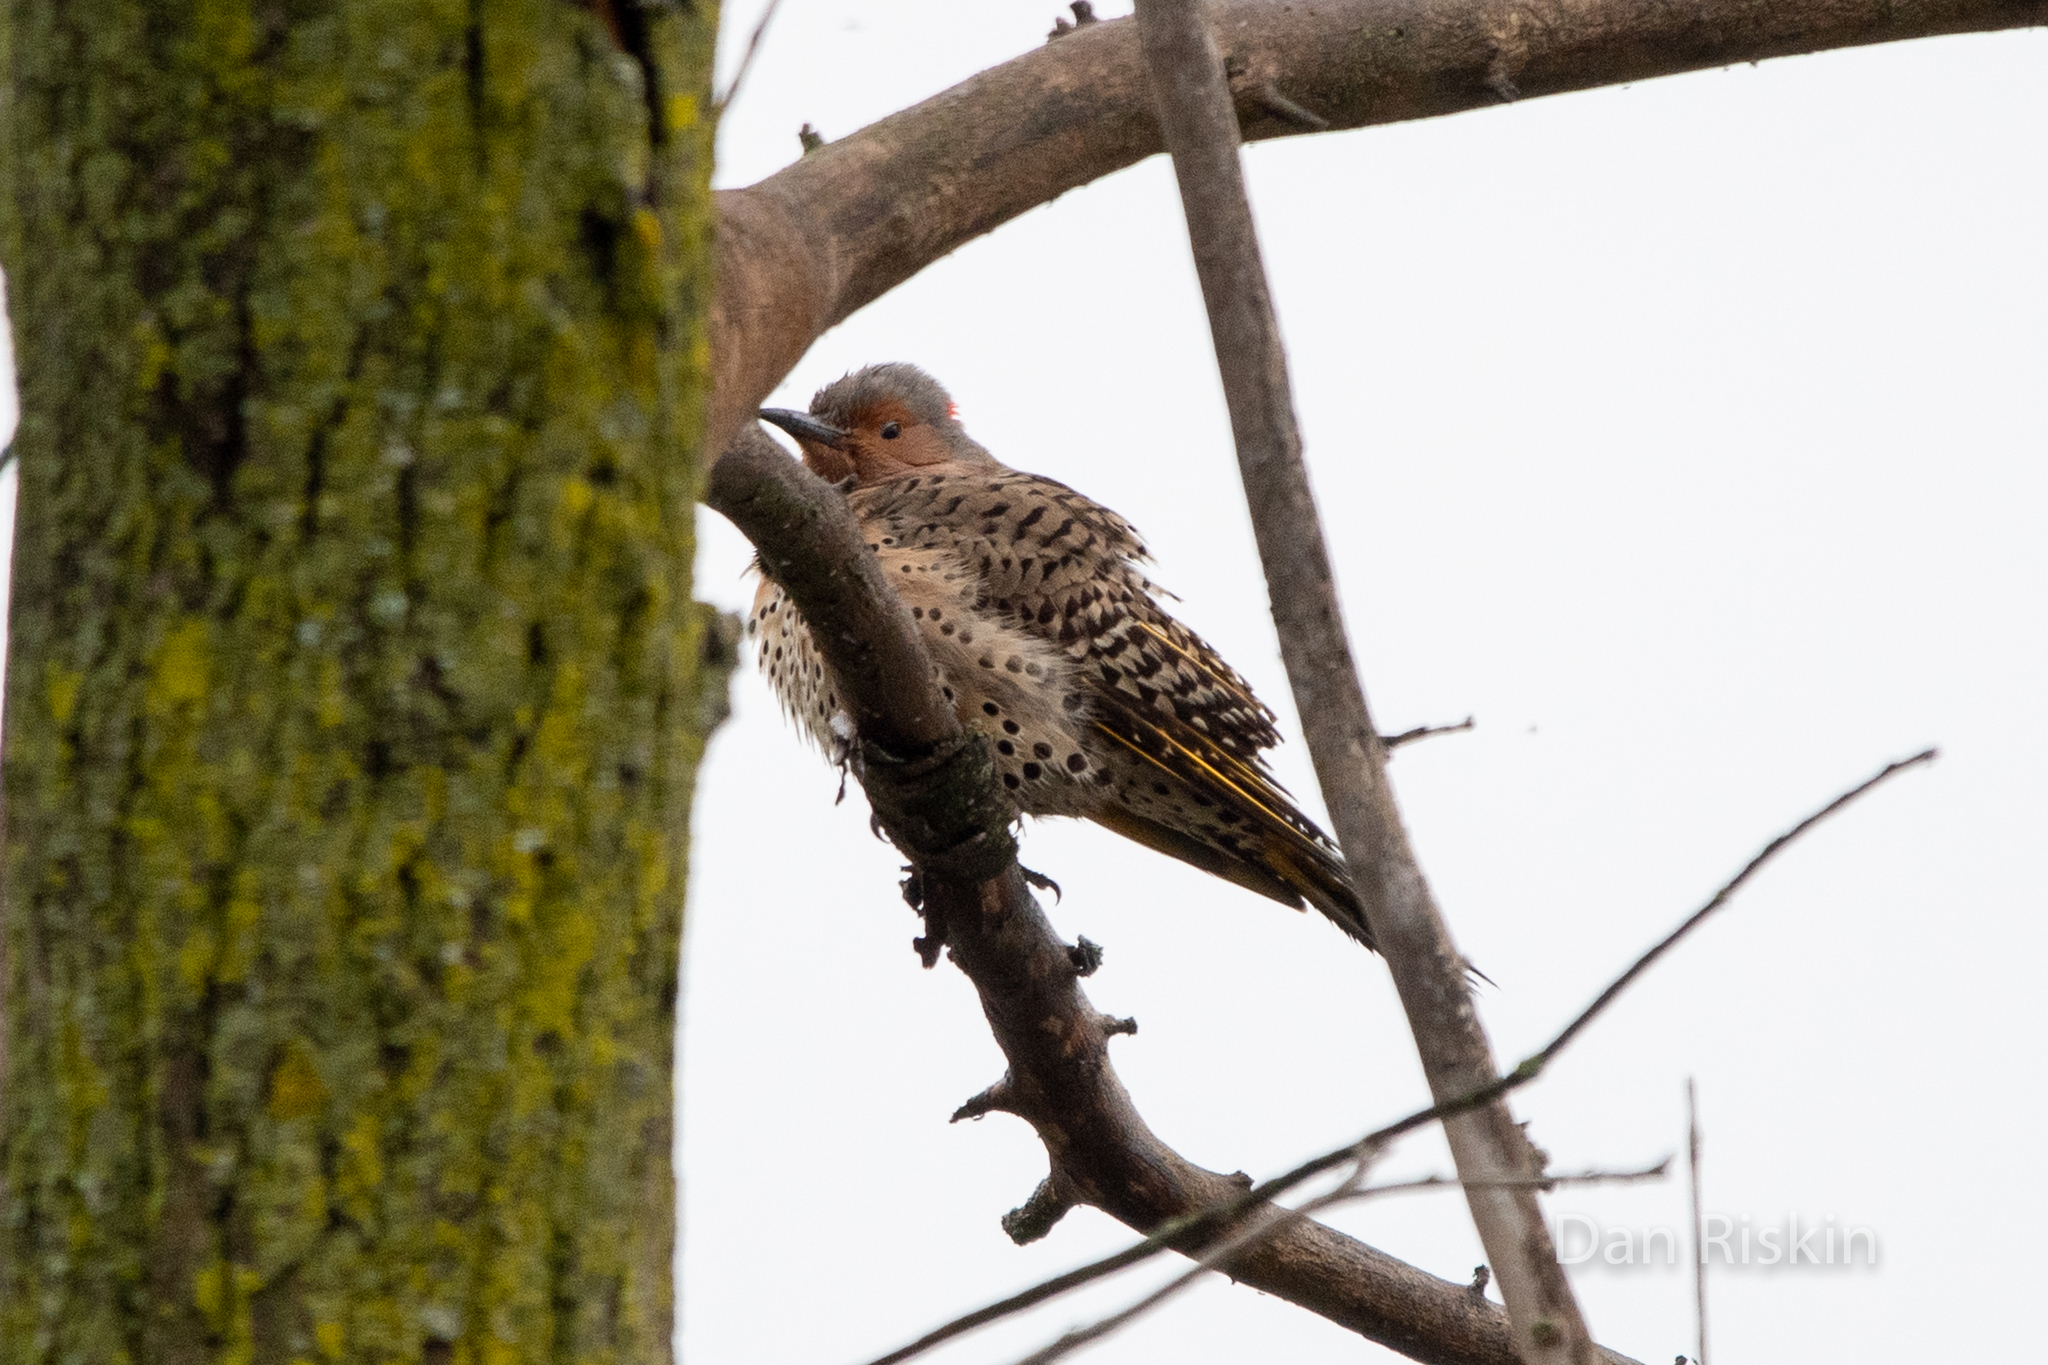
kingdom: Animalia
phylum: Chordata
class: Aves
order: Piciformes
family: Picidae
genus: Colaptes
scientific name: Colaptes auratus
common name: Northern flicker
